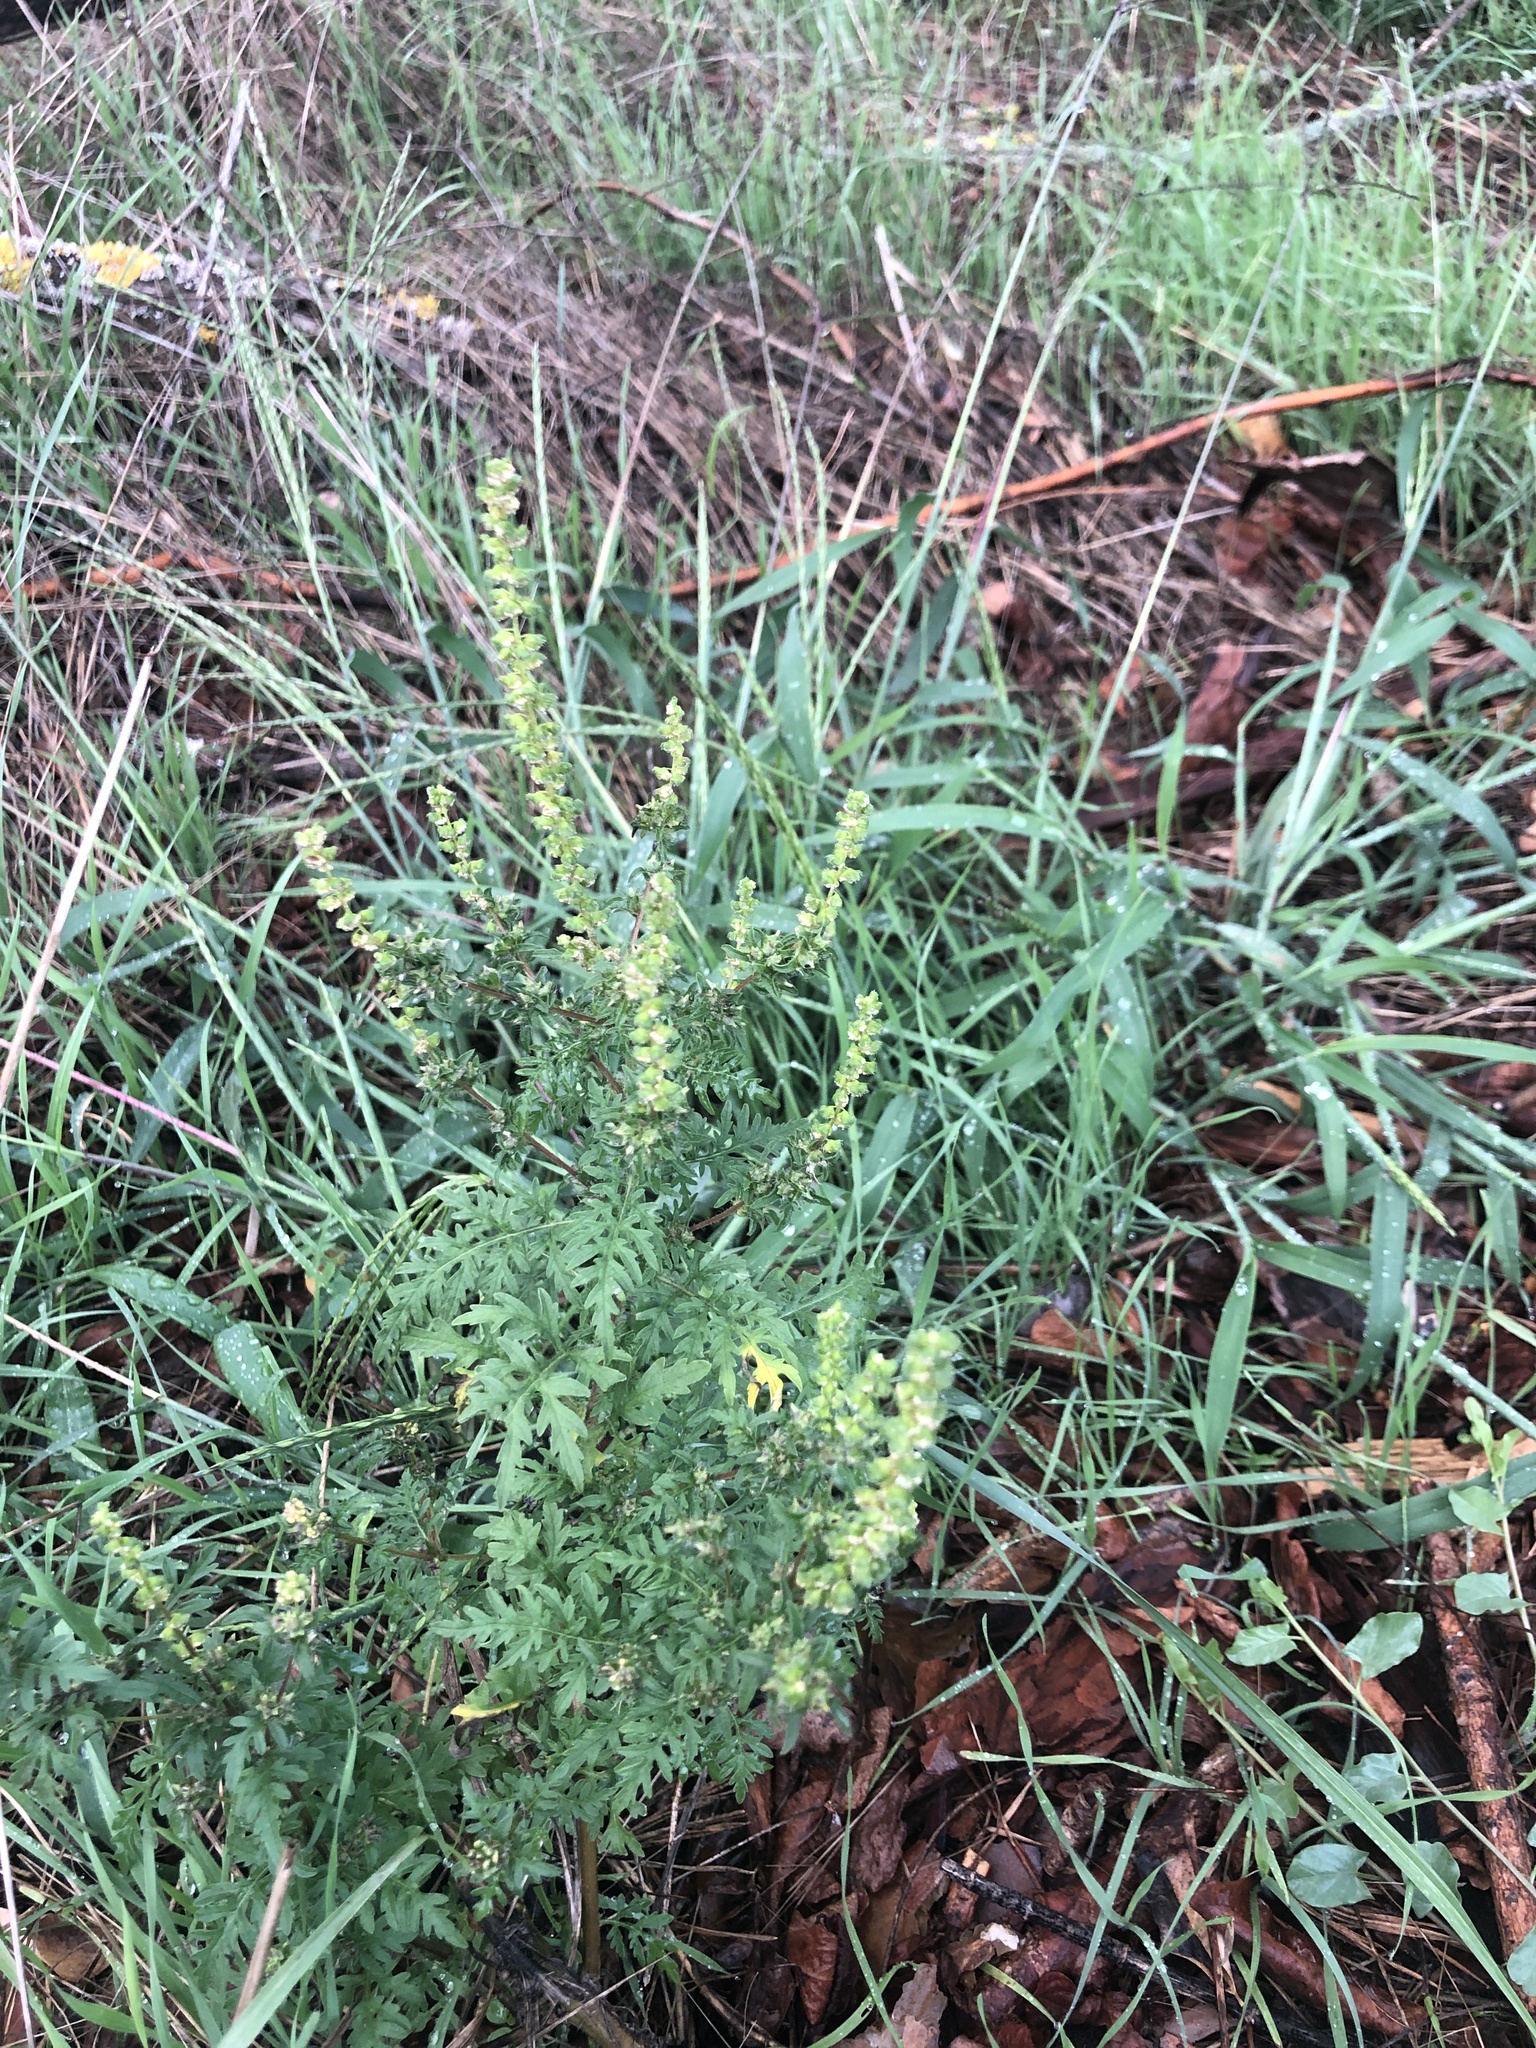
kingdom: Plantae
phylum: Tracheophyta
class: Magnoliopsida
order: Asterales
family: Asteraceae
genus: Ambrosia
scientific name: Ambrosia artemisiifolia
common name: Annual ragweed
